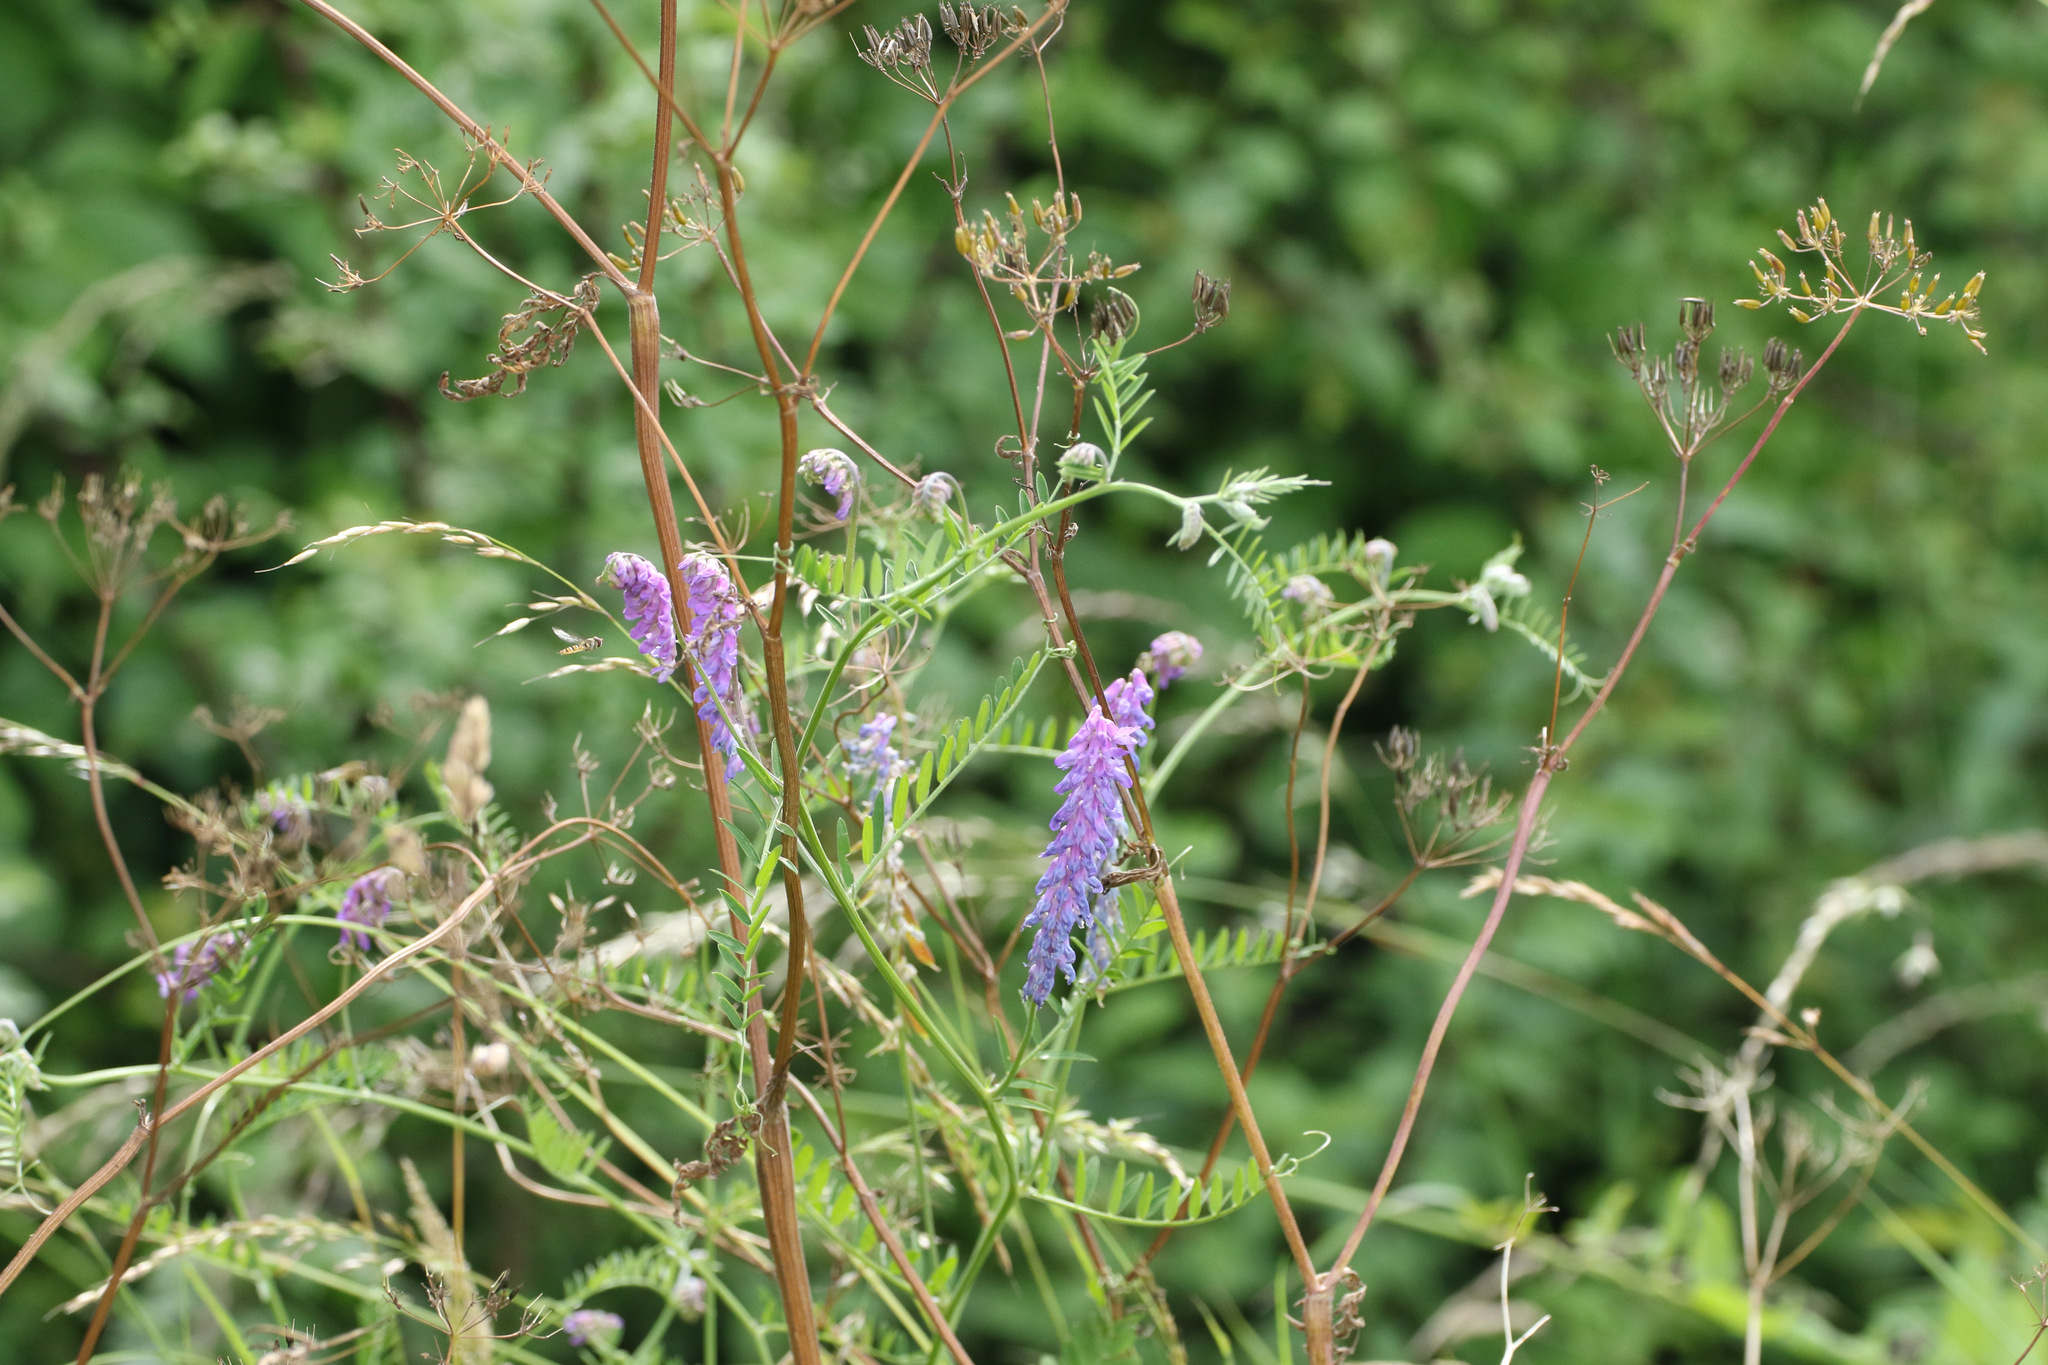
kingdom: Plantae
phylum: Tracheophyta
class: Magnoliopsida
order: Fabales
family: Fabaceae
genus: Vicia
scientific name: Vicia cracca
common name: Bird vetch
